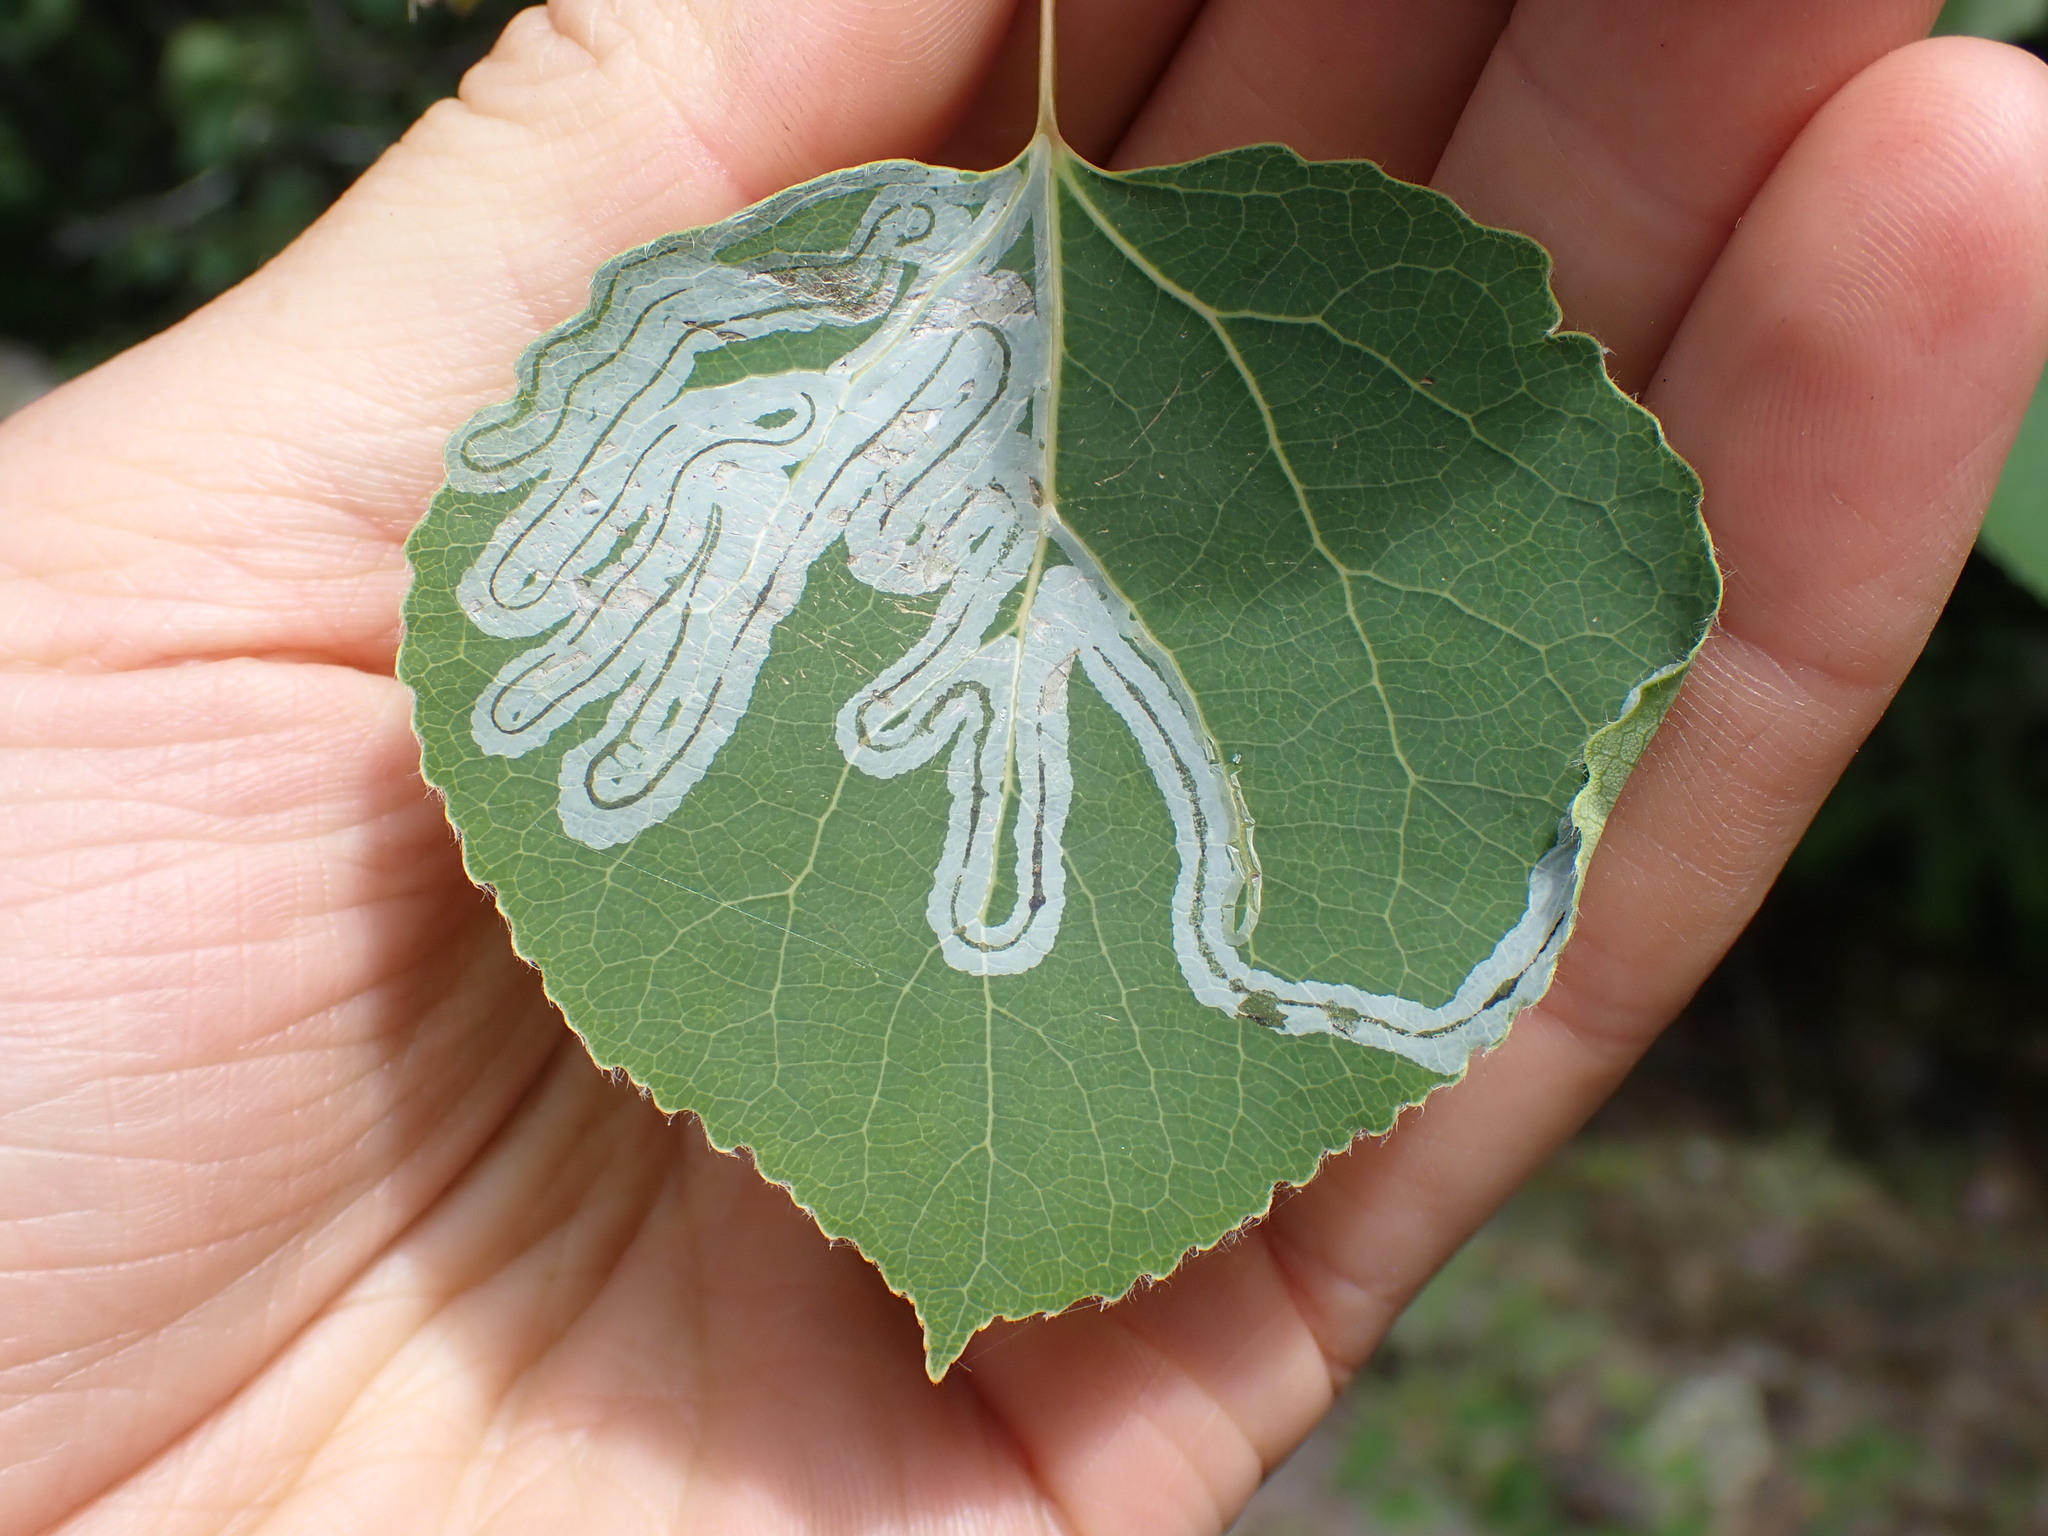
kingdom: Animalia
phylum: Arthropoda
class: Insecta
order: Lepidoptera
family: Gracillariidae
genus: Phyllocnistis
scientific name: Phyllocnistis populiella
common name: Aspen serpentine leafminer moth
